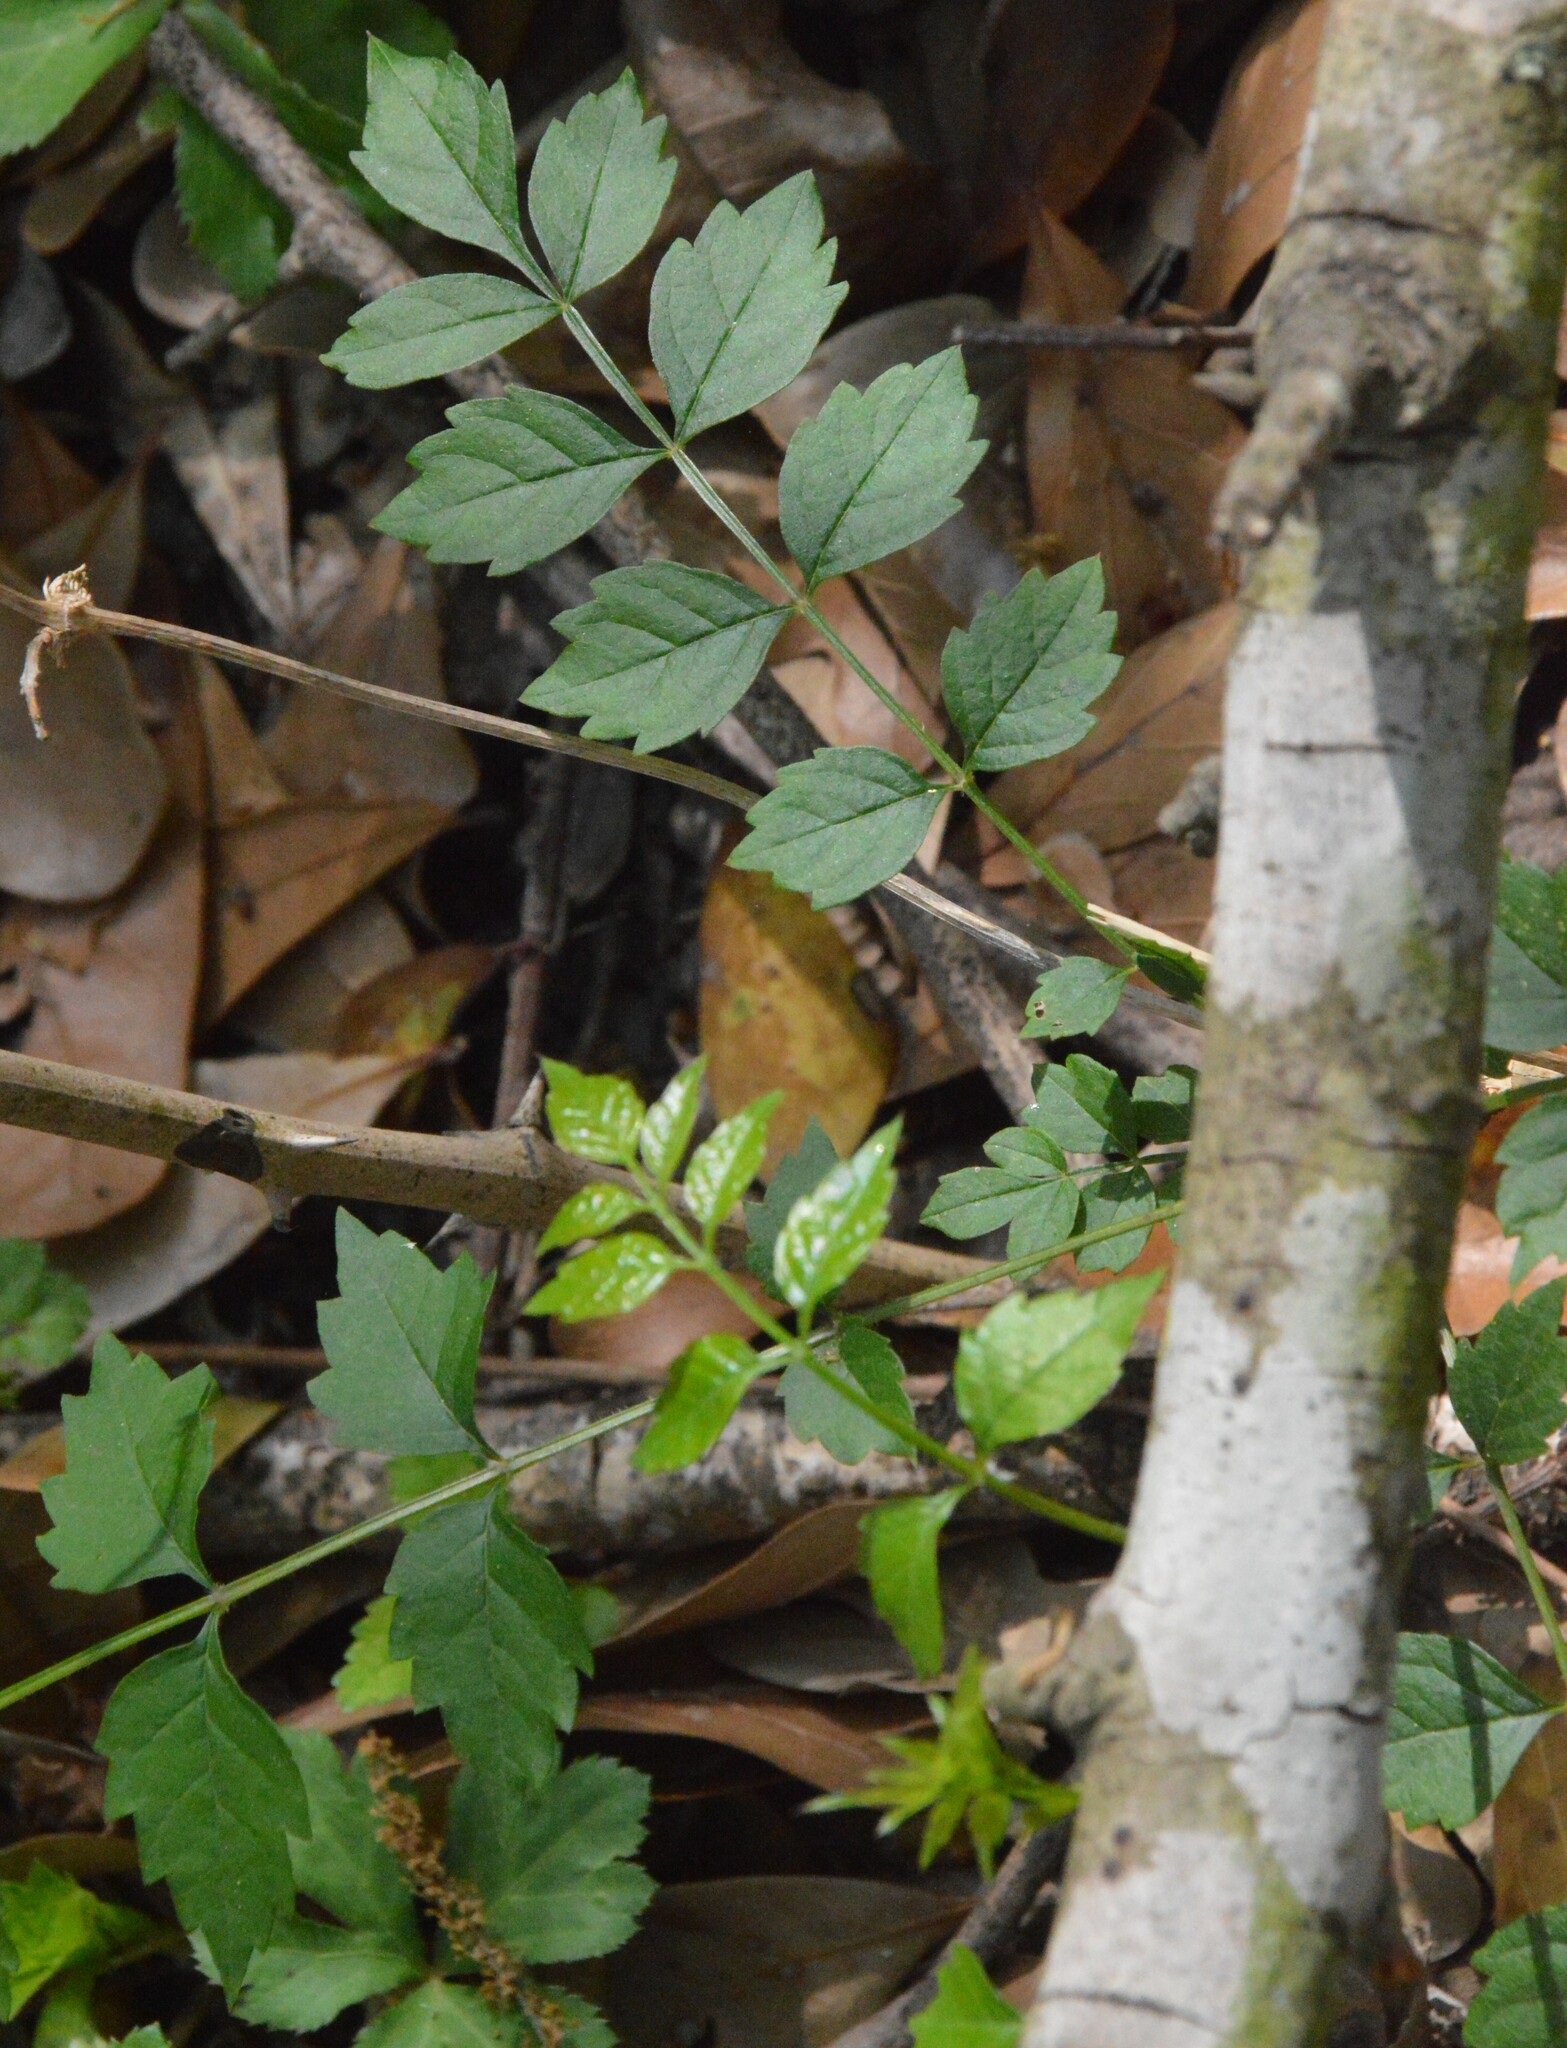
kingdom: Plantae
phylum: Tracheophyta
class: Magnoliopsida
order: Lamiales
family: Bignoniaceae
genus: Campsis
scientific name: Campsis radicans
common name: Trumpet-creeper
